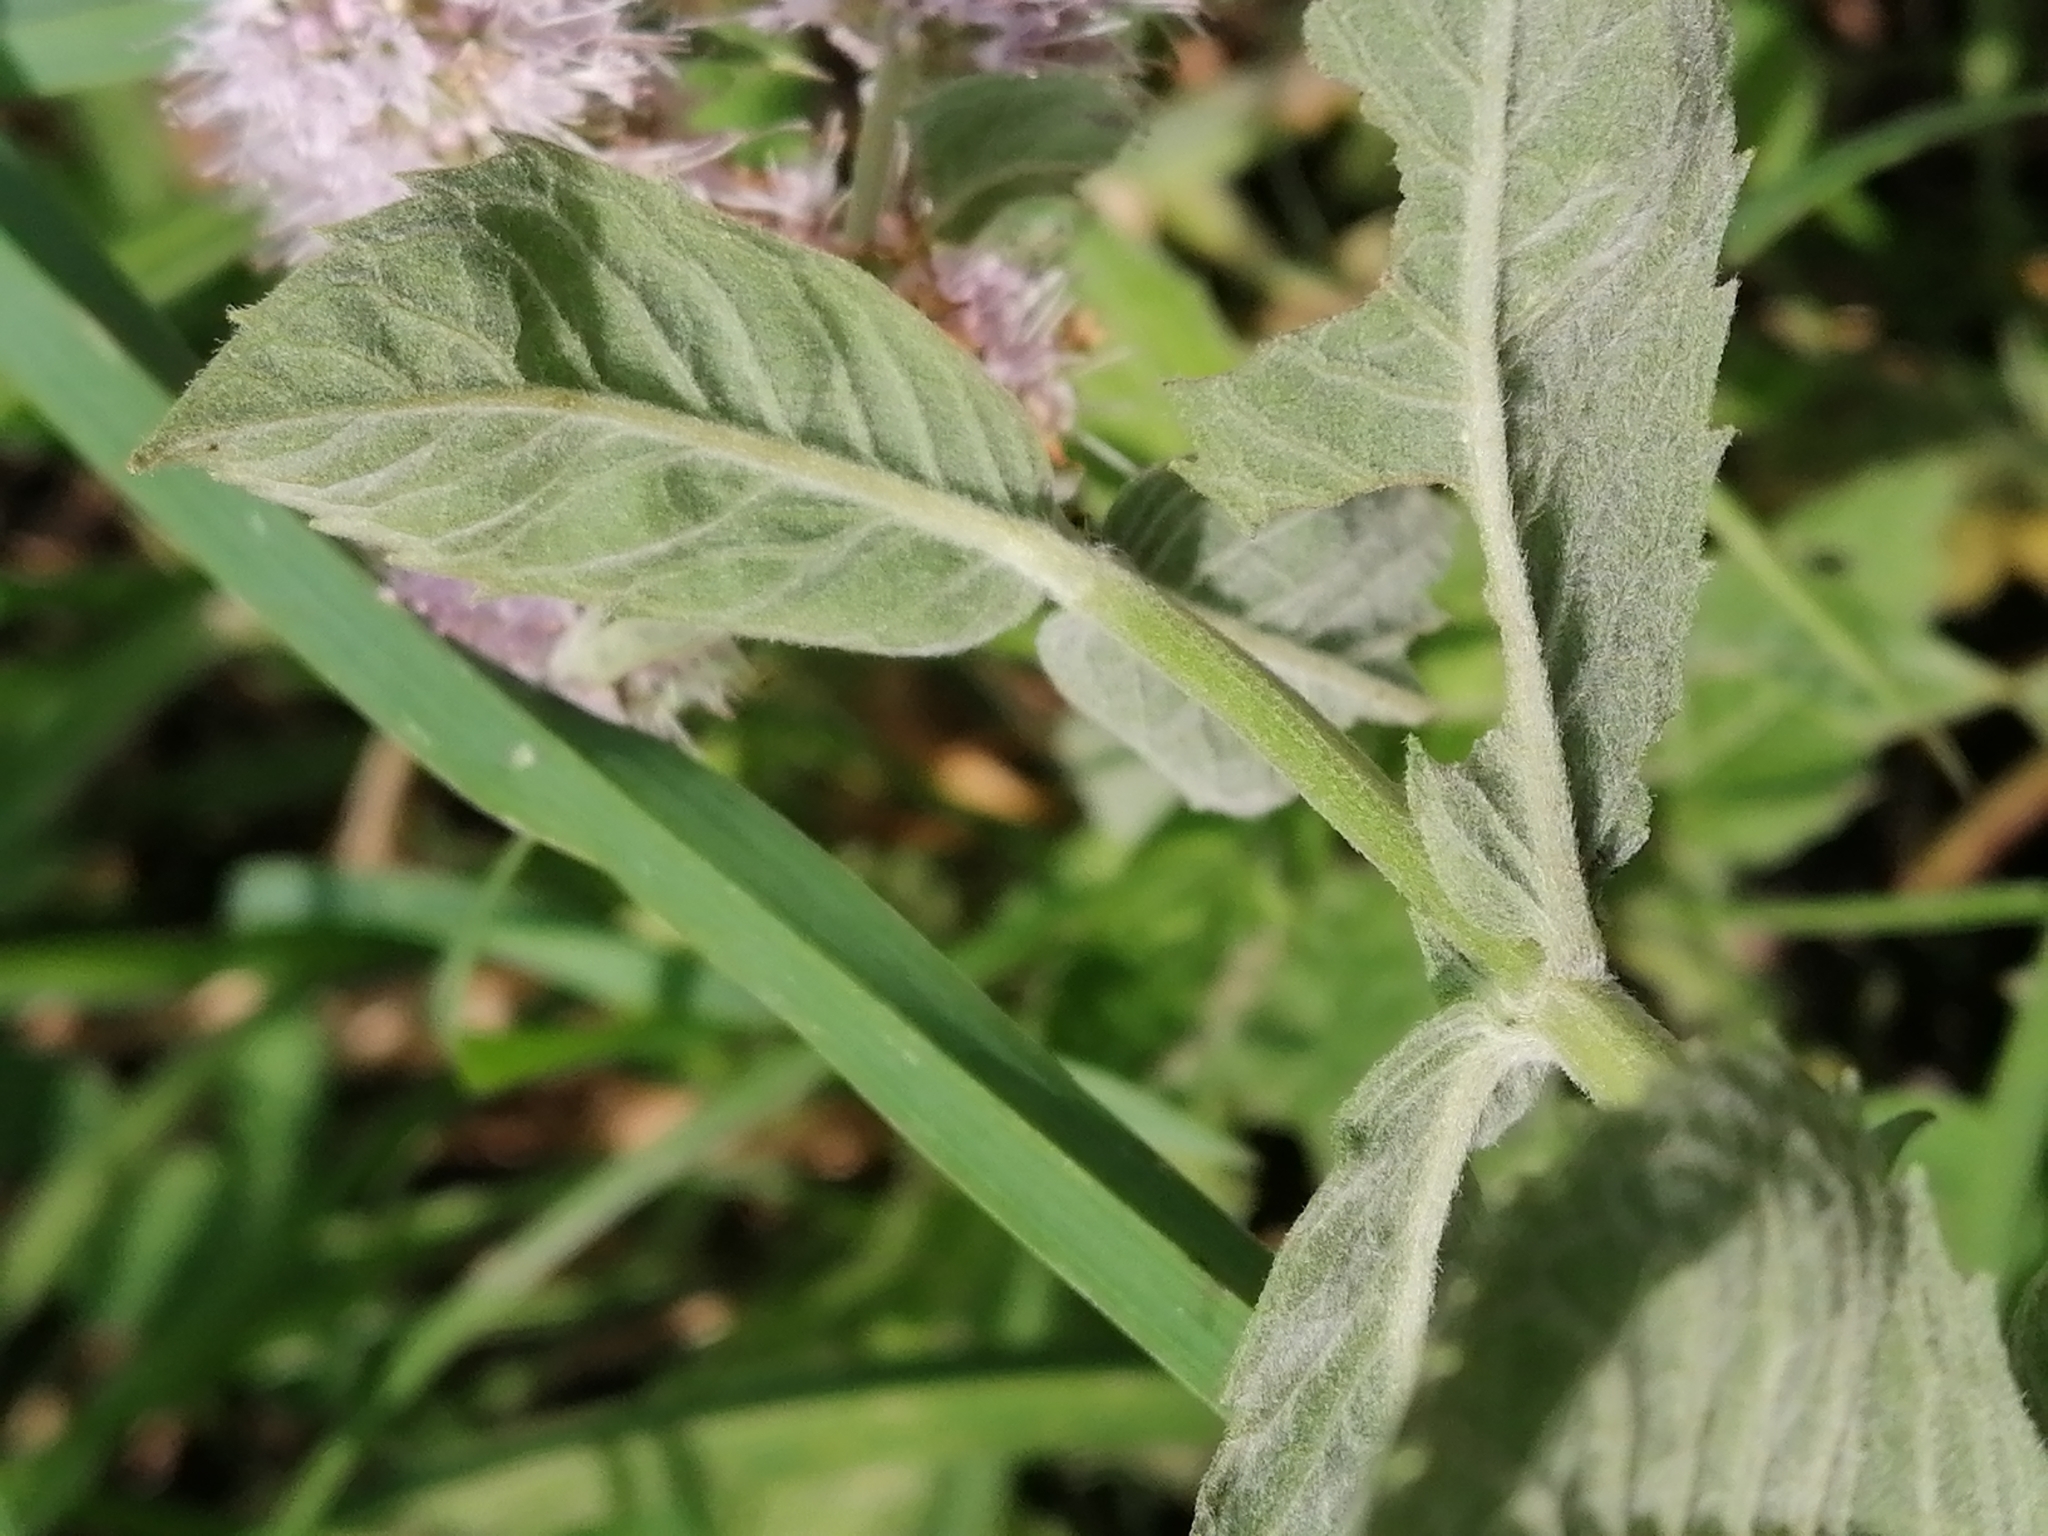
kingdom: Plantae
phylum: Tracheophyta
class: Magnoliopsida
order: Lamiales
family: Lamiaceae
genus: Mentha
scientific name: Mentha longifolia
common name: Horse mint
